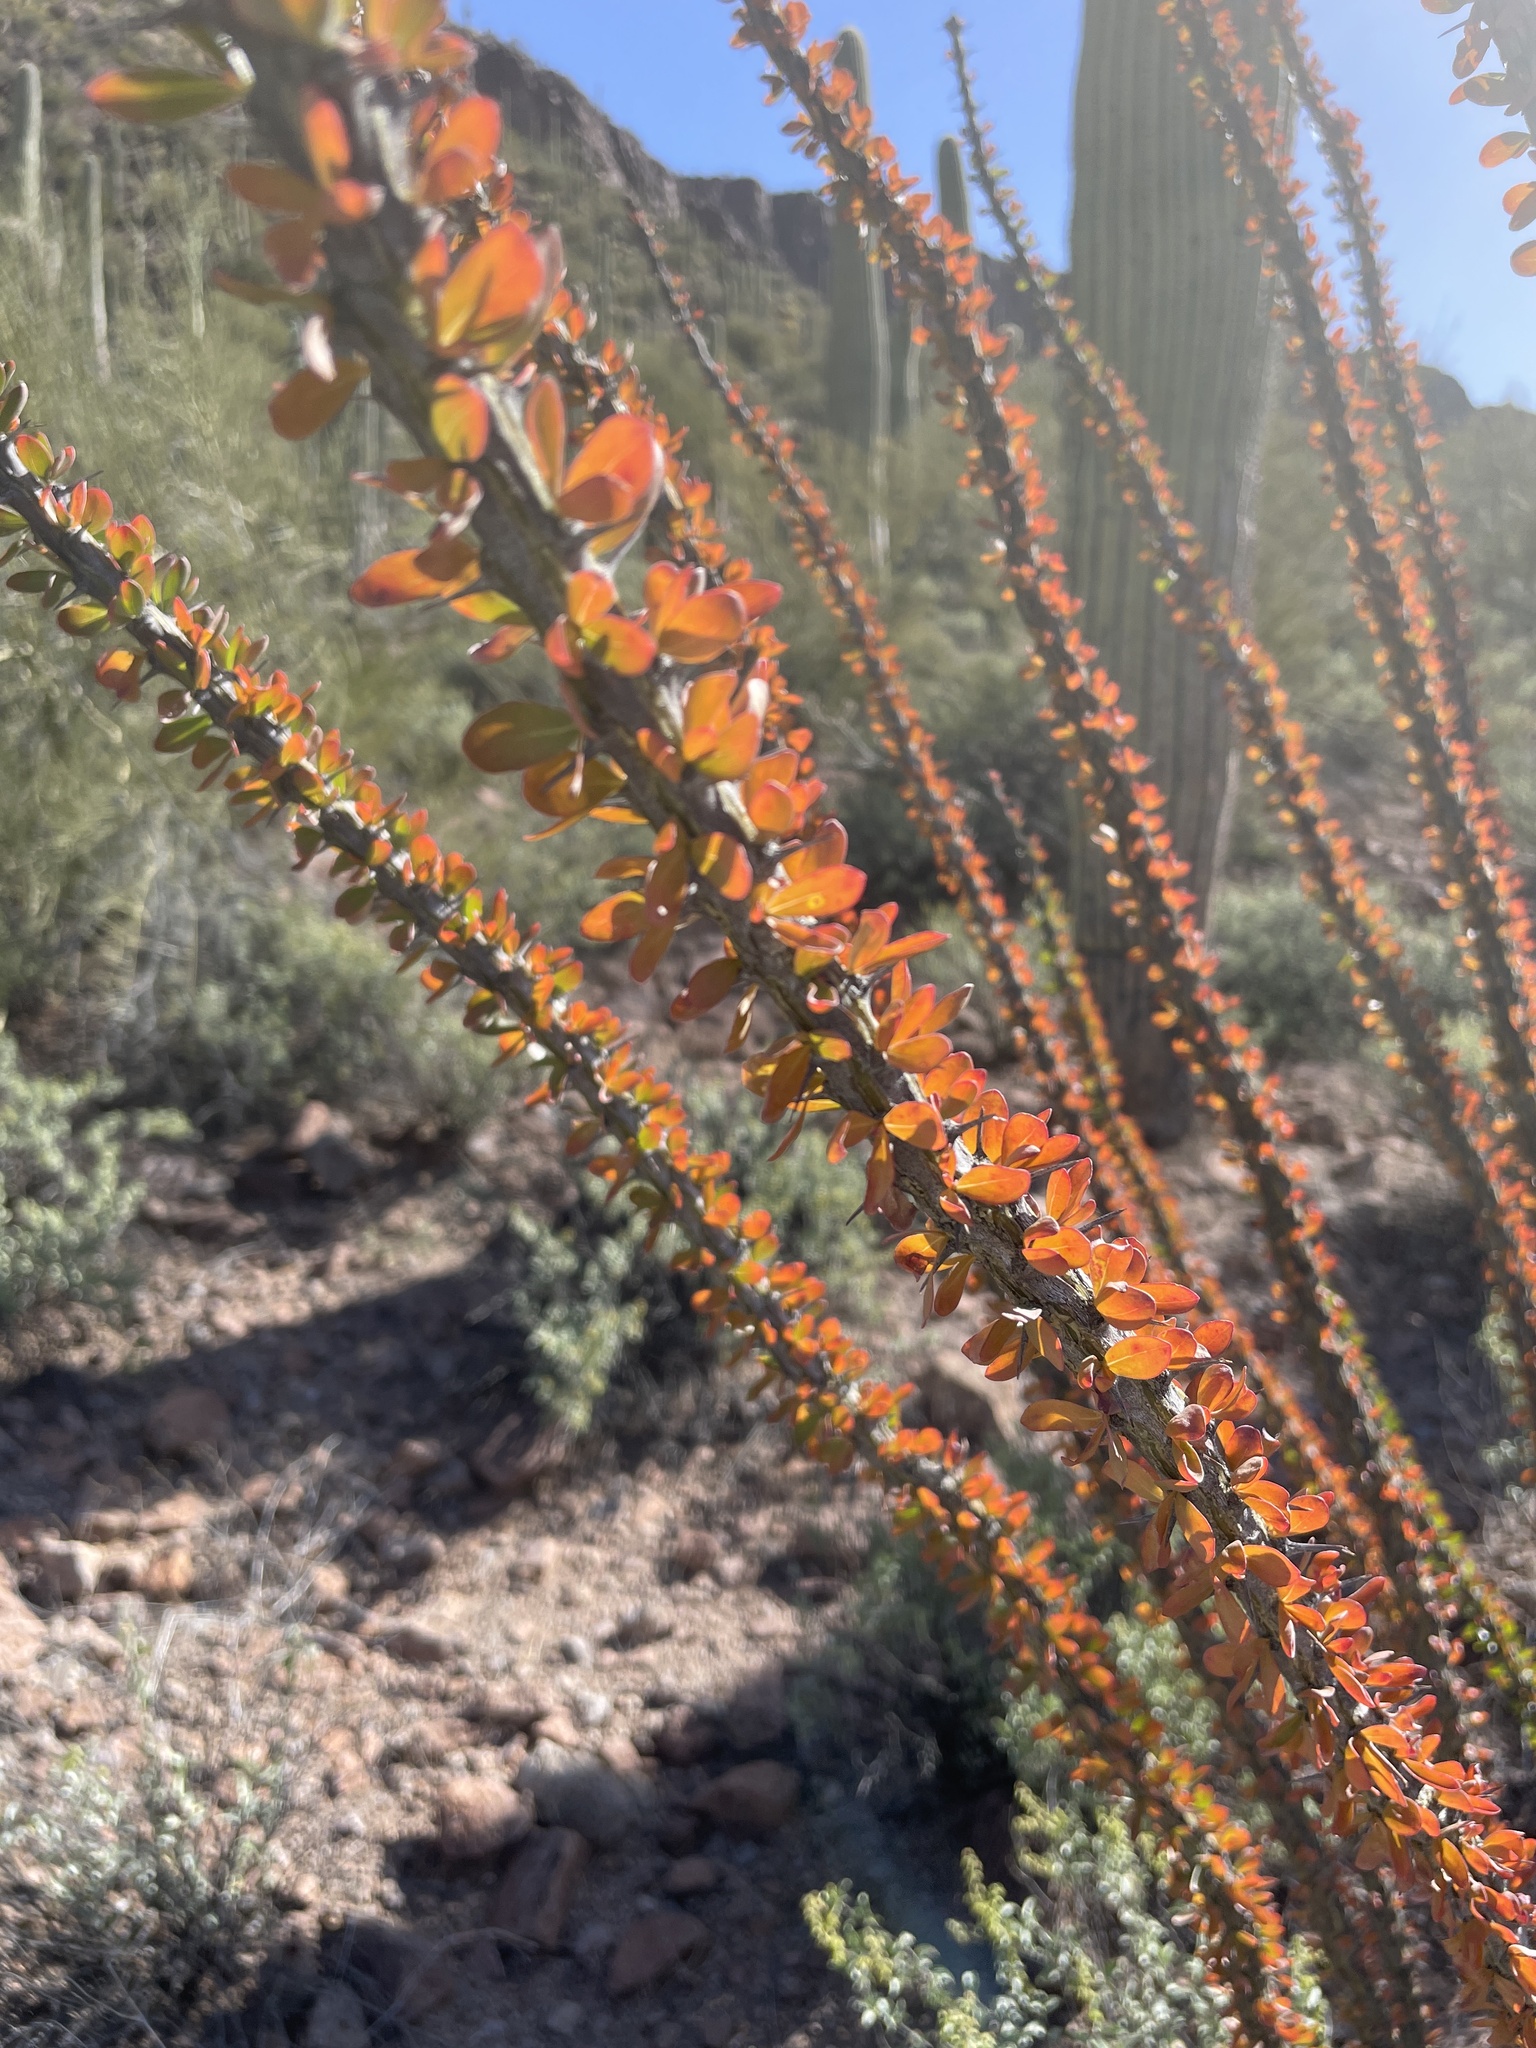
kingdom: Plantae
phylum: Tracheophyta
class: Magnoliopsida
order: Ericales
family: Fouquieriaceae
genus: Fouquieria
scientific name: Fouquieria splendens
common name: Vine-cactus
